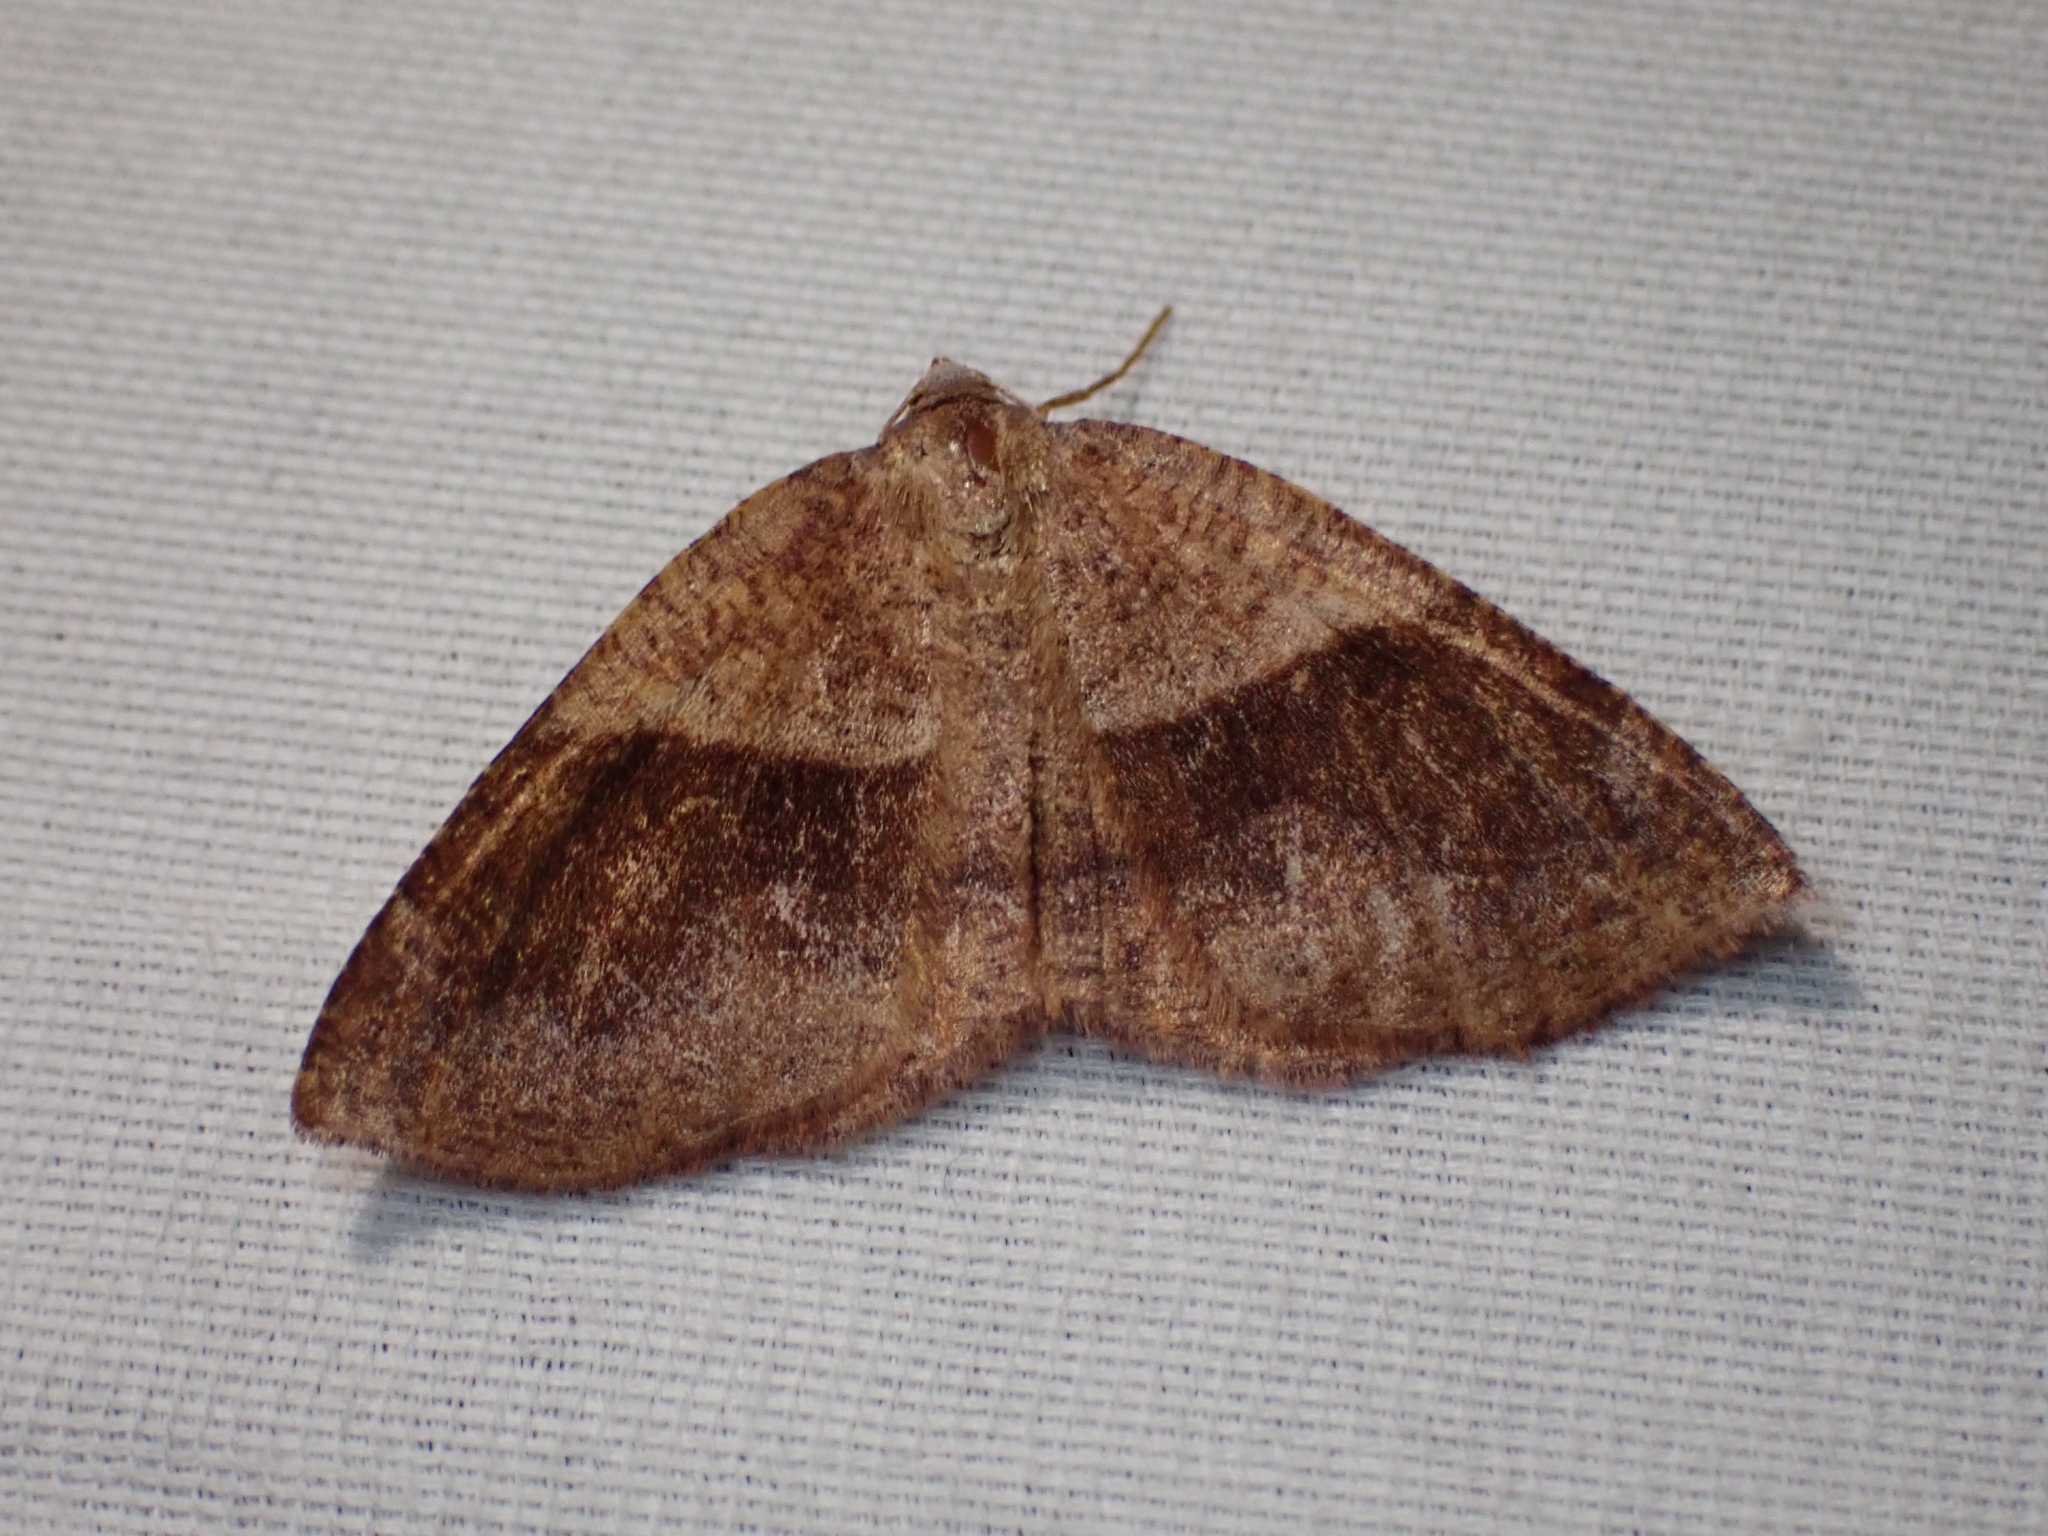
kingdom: Animalia
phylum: Arthropoda
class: Insecta
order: Lepidoptera
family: Geometridae
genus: Plagodis
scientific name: Plagodis pulveraria
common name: Barred umber
